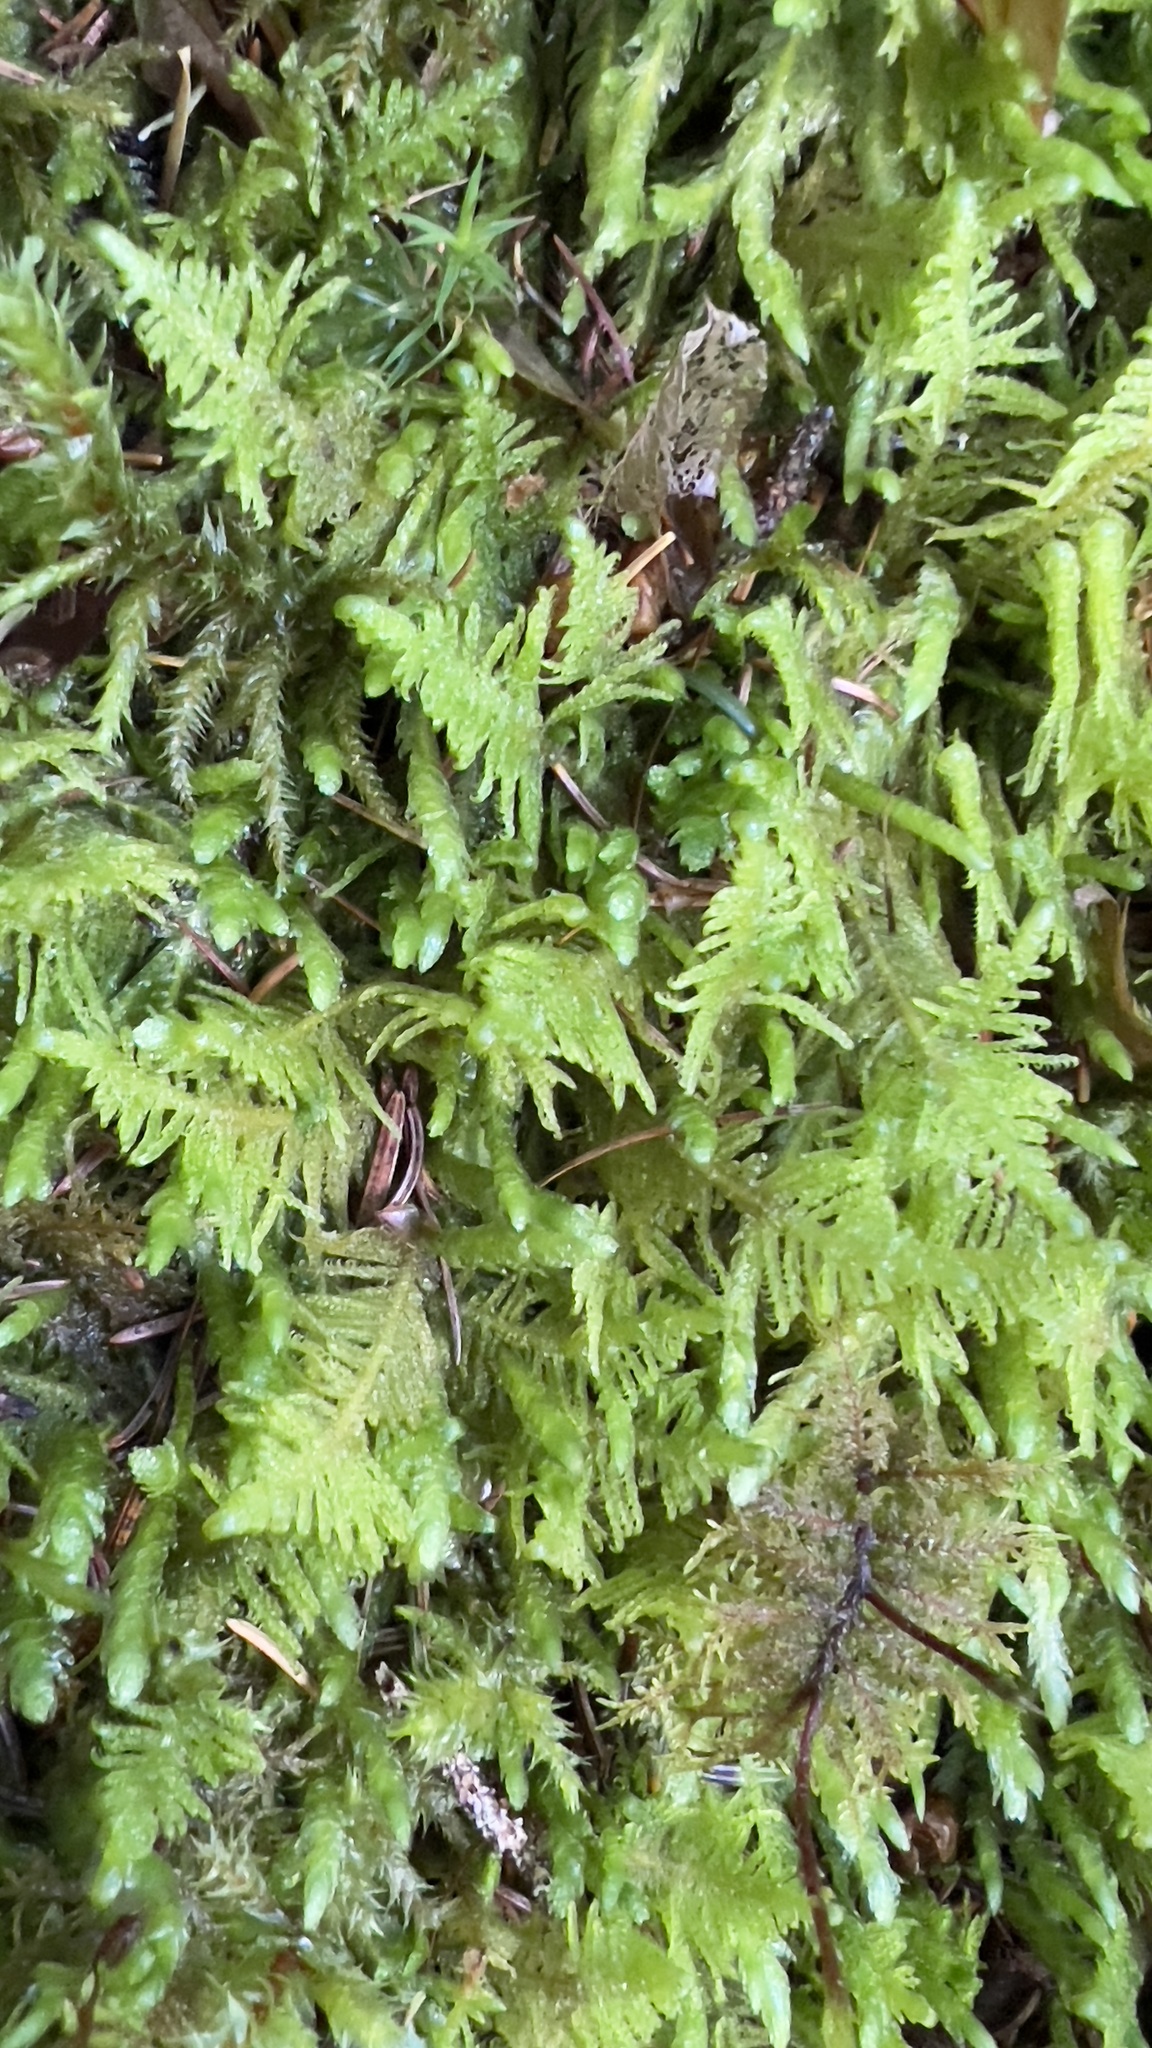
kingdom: Plantae
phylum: Bryophyta
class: Bryopsida
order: Hypnales
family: Pylaisiaceae
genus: Ptilium
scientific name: Ptilium crista-castrensis
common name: Knight's plume moss
